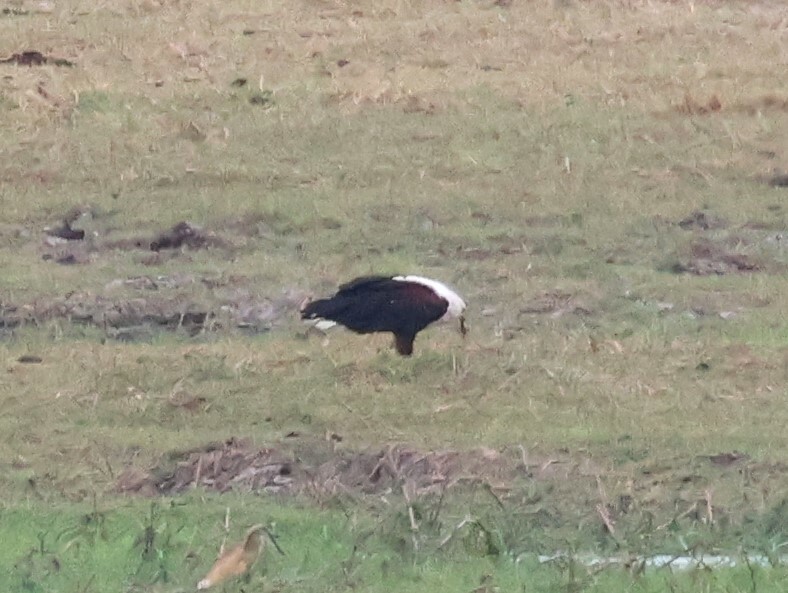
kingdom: Animalia
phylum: Chordata
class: Aves
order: Accipitriformes
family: Accipitridae
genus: Haliaeetus
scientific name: Haliaeetus vocifer
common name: African fish eagle
